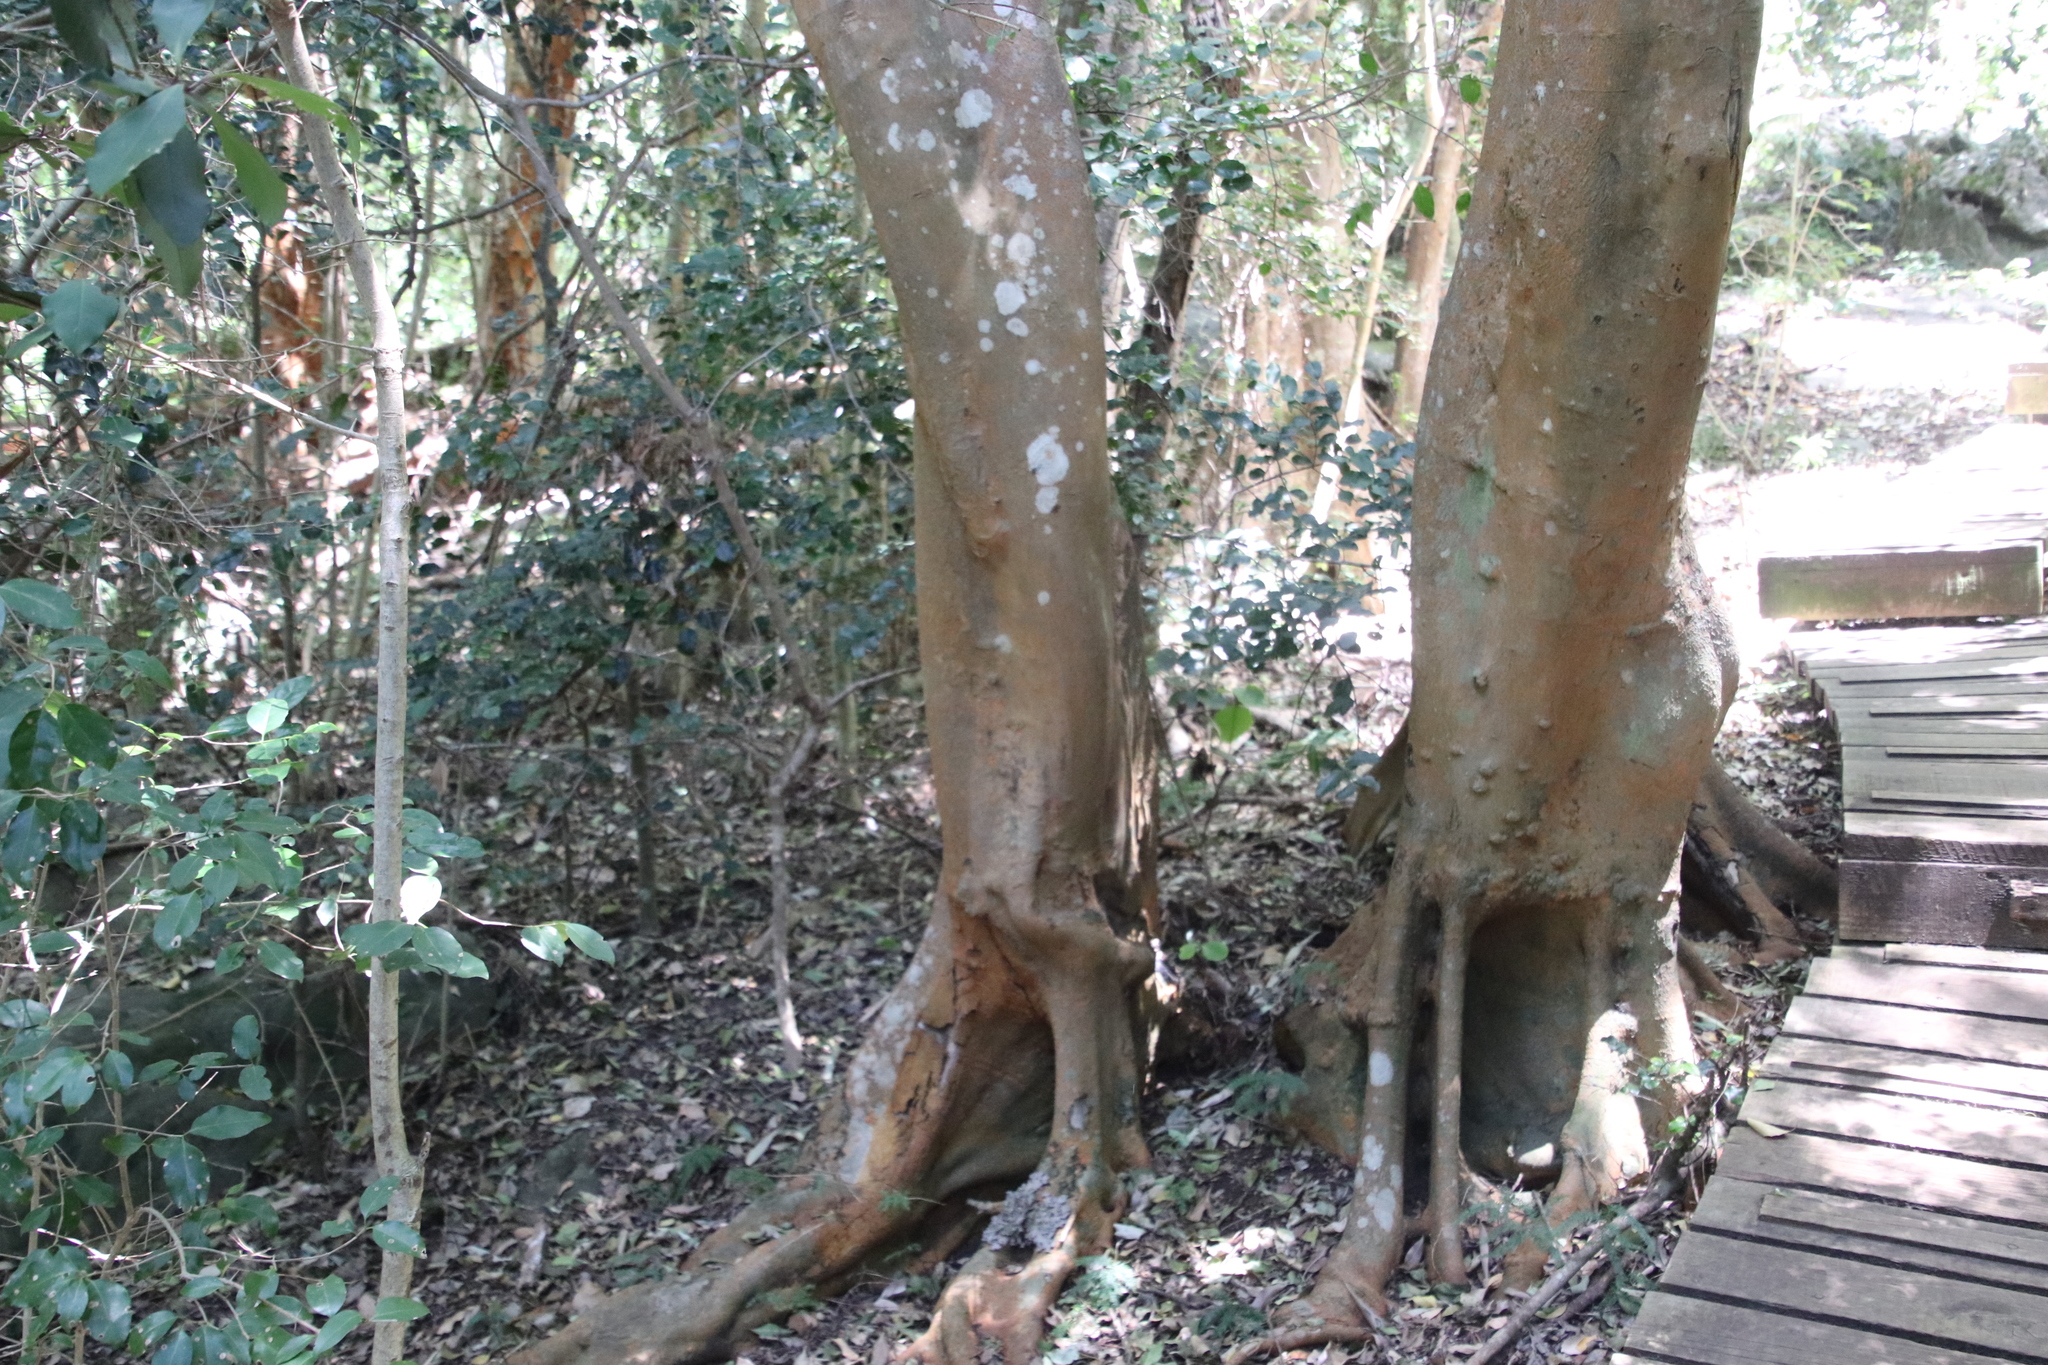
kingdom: Plantae
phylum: Tracheophyta
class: Magnoliopsida
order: Celastrales
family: Celastraceae
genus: Cassine
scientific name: Cassine peragua
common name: Cape saffron
